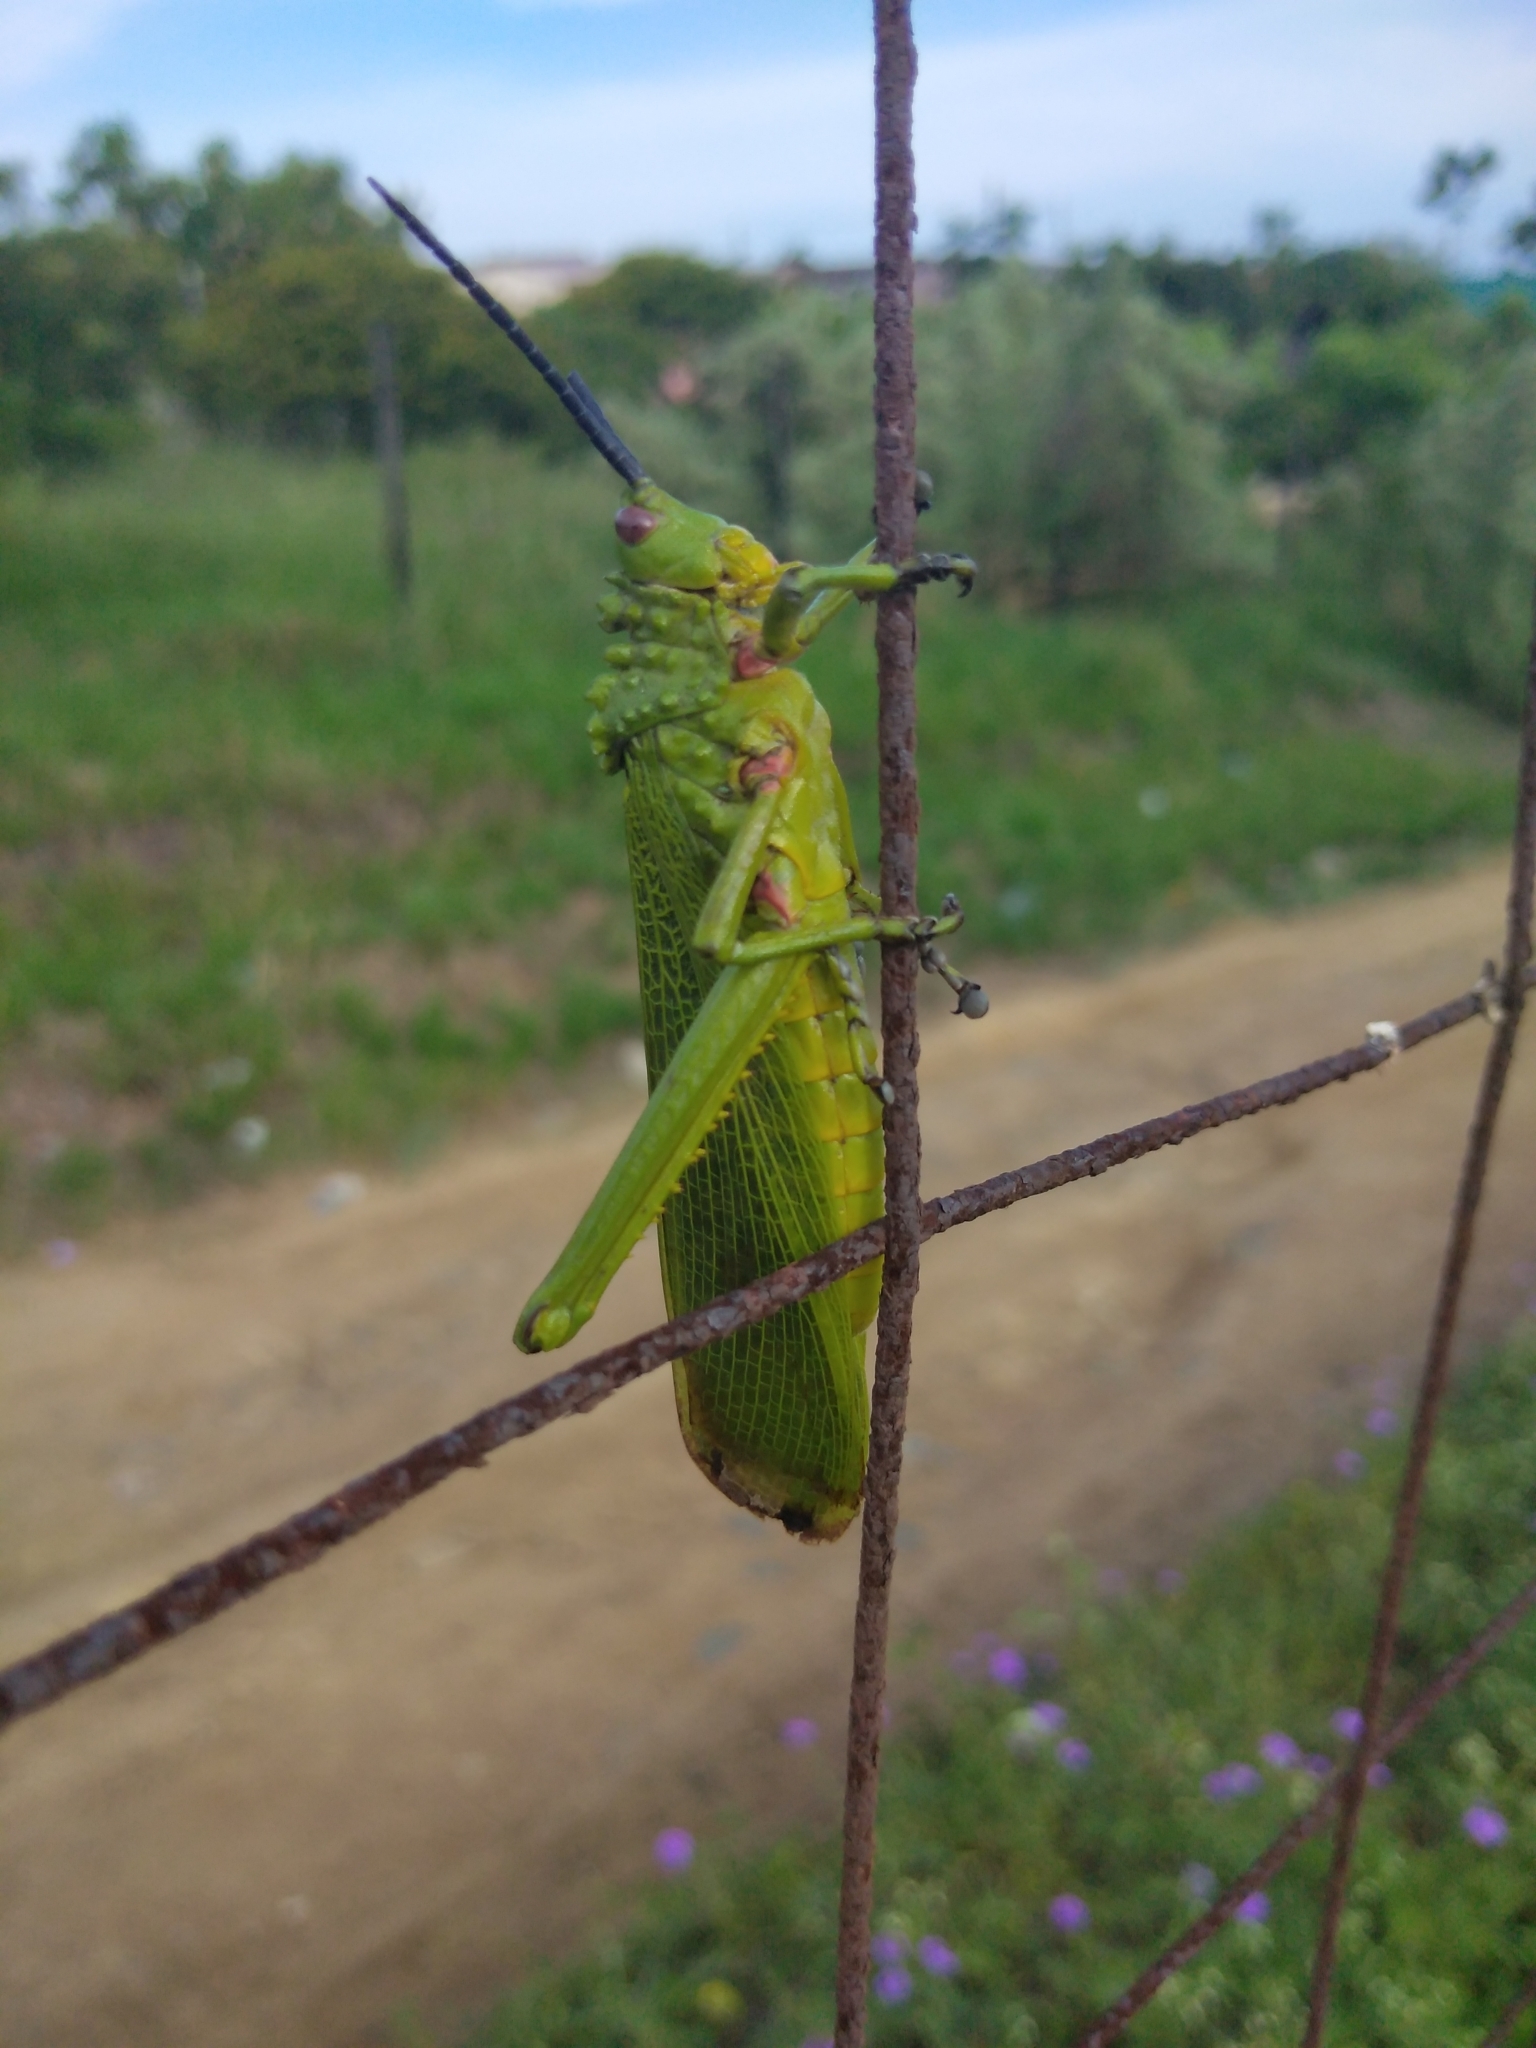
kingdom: Animalia
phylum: Arthropoda
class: Insecta
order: Orthoptera
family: Pyrgomorphidae
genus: Phymateus
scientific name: Phymateus viridipes
